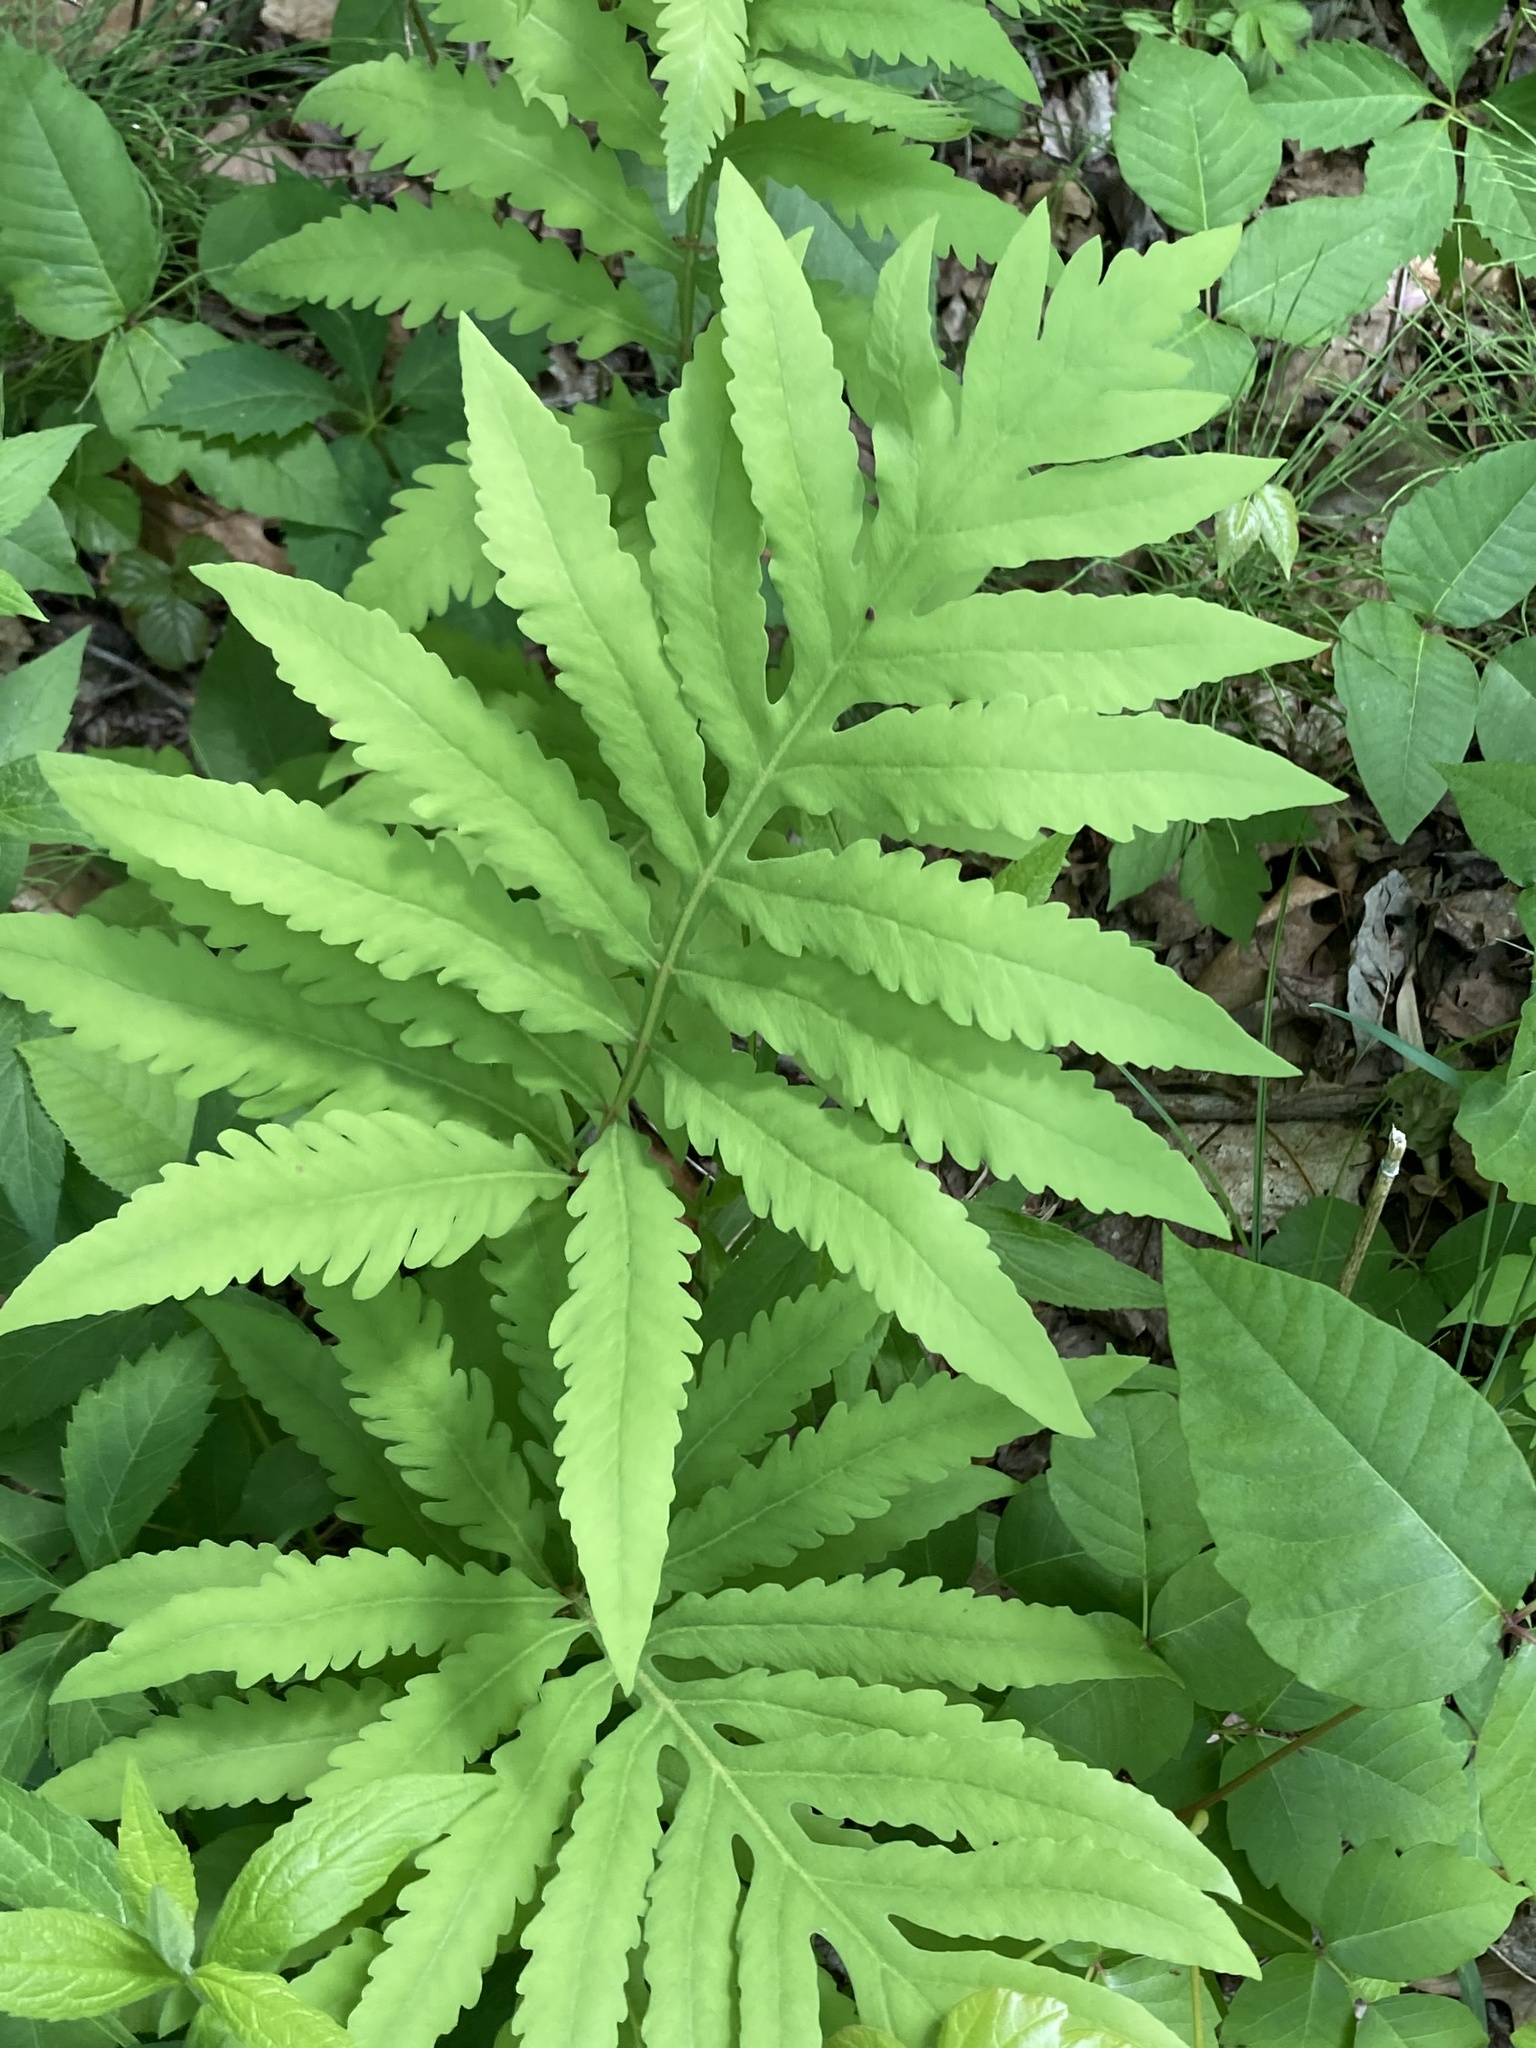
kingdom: Plantae
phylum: Tracheophyta
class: Polypodiopsida
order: Polypodiales
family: Onocleaceae
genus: Onoclea
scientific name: Onoclea sensibilis
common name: Sensitive fern
